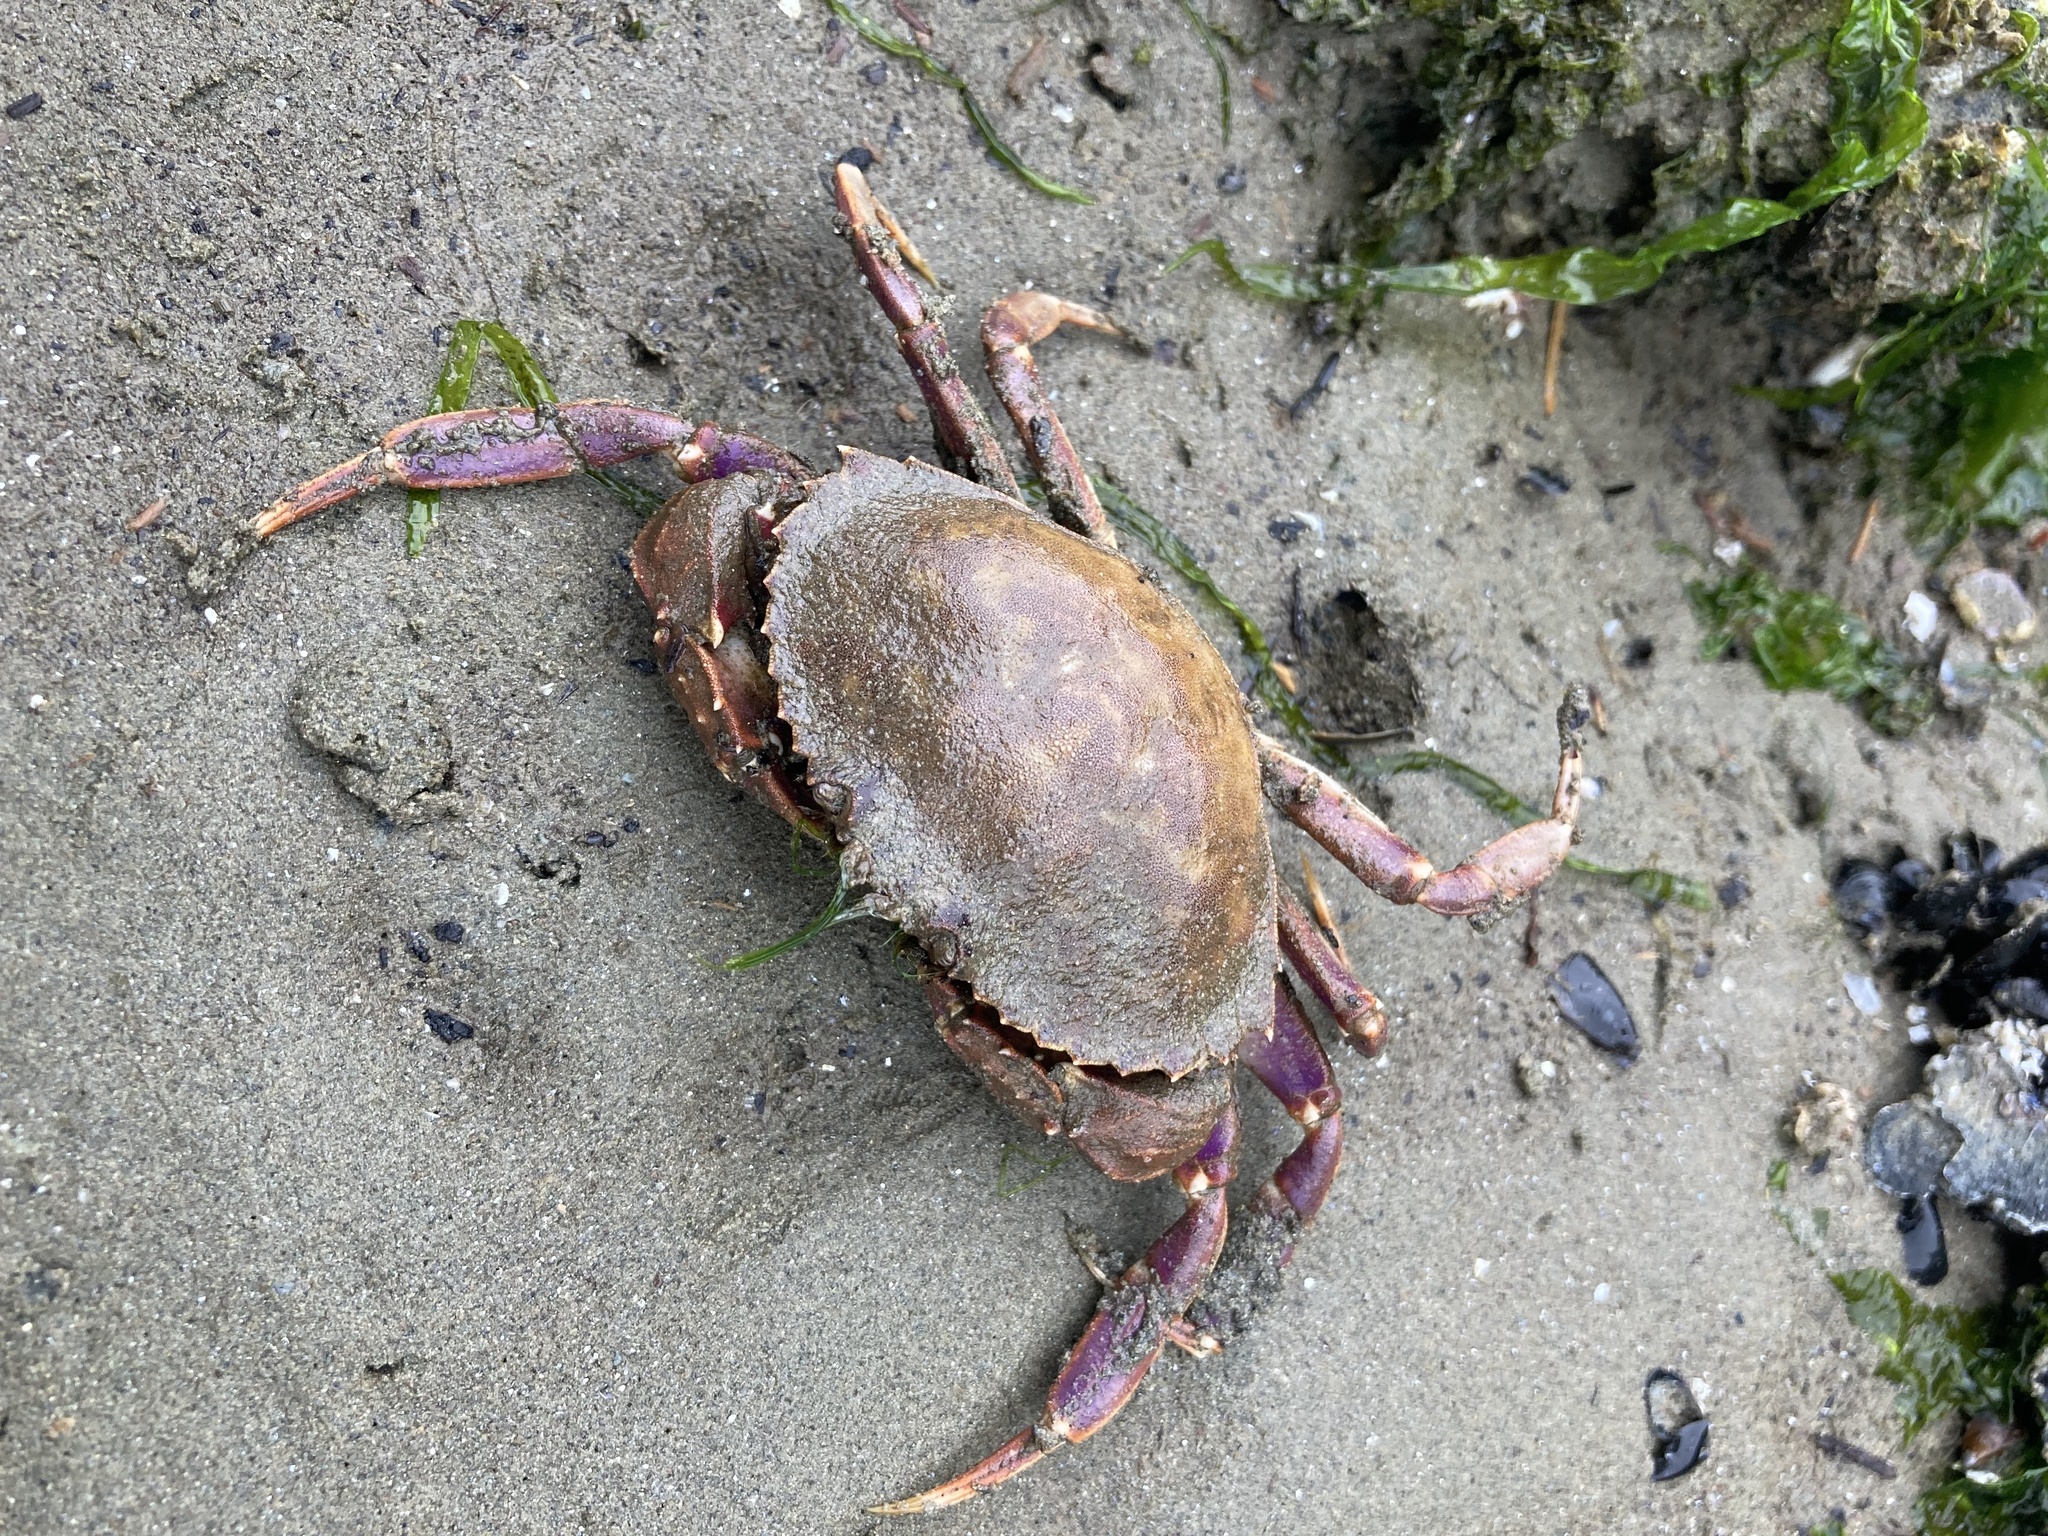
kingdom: Animalia
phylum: Arthropoda
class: Malacostraca
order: Decapoda
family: Cancridae
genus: Metacarcinus
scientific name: Metacarcinus gracilis
